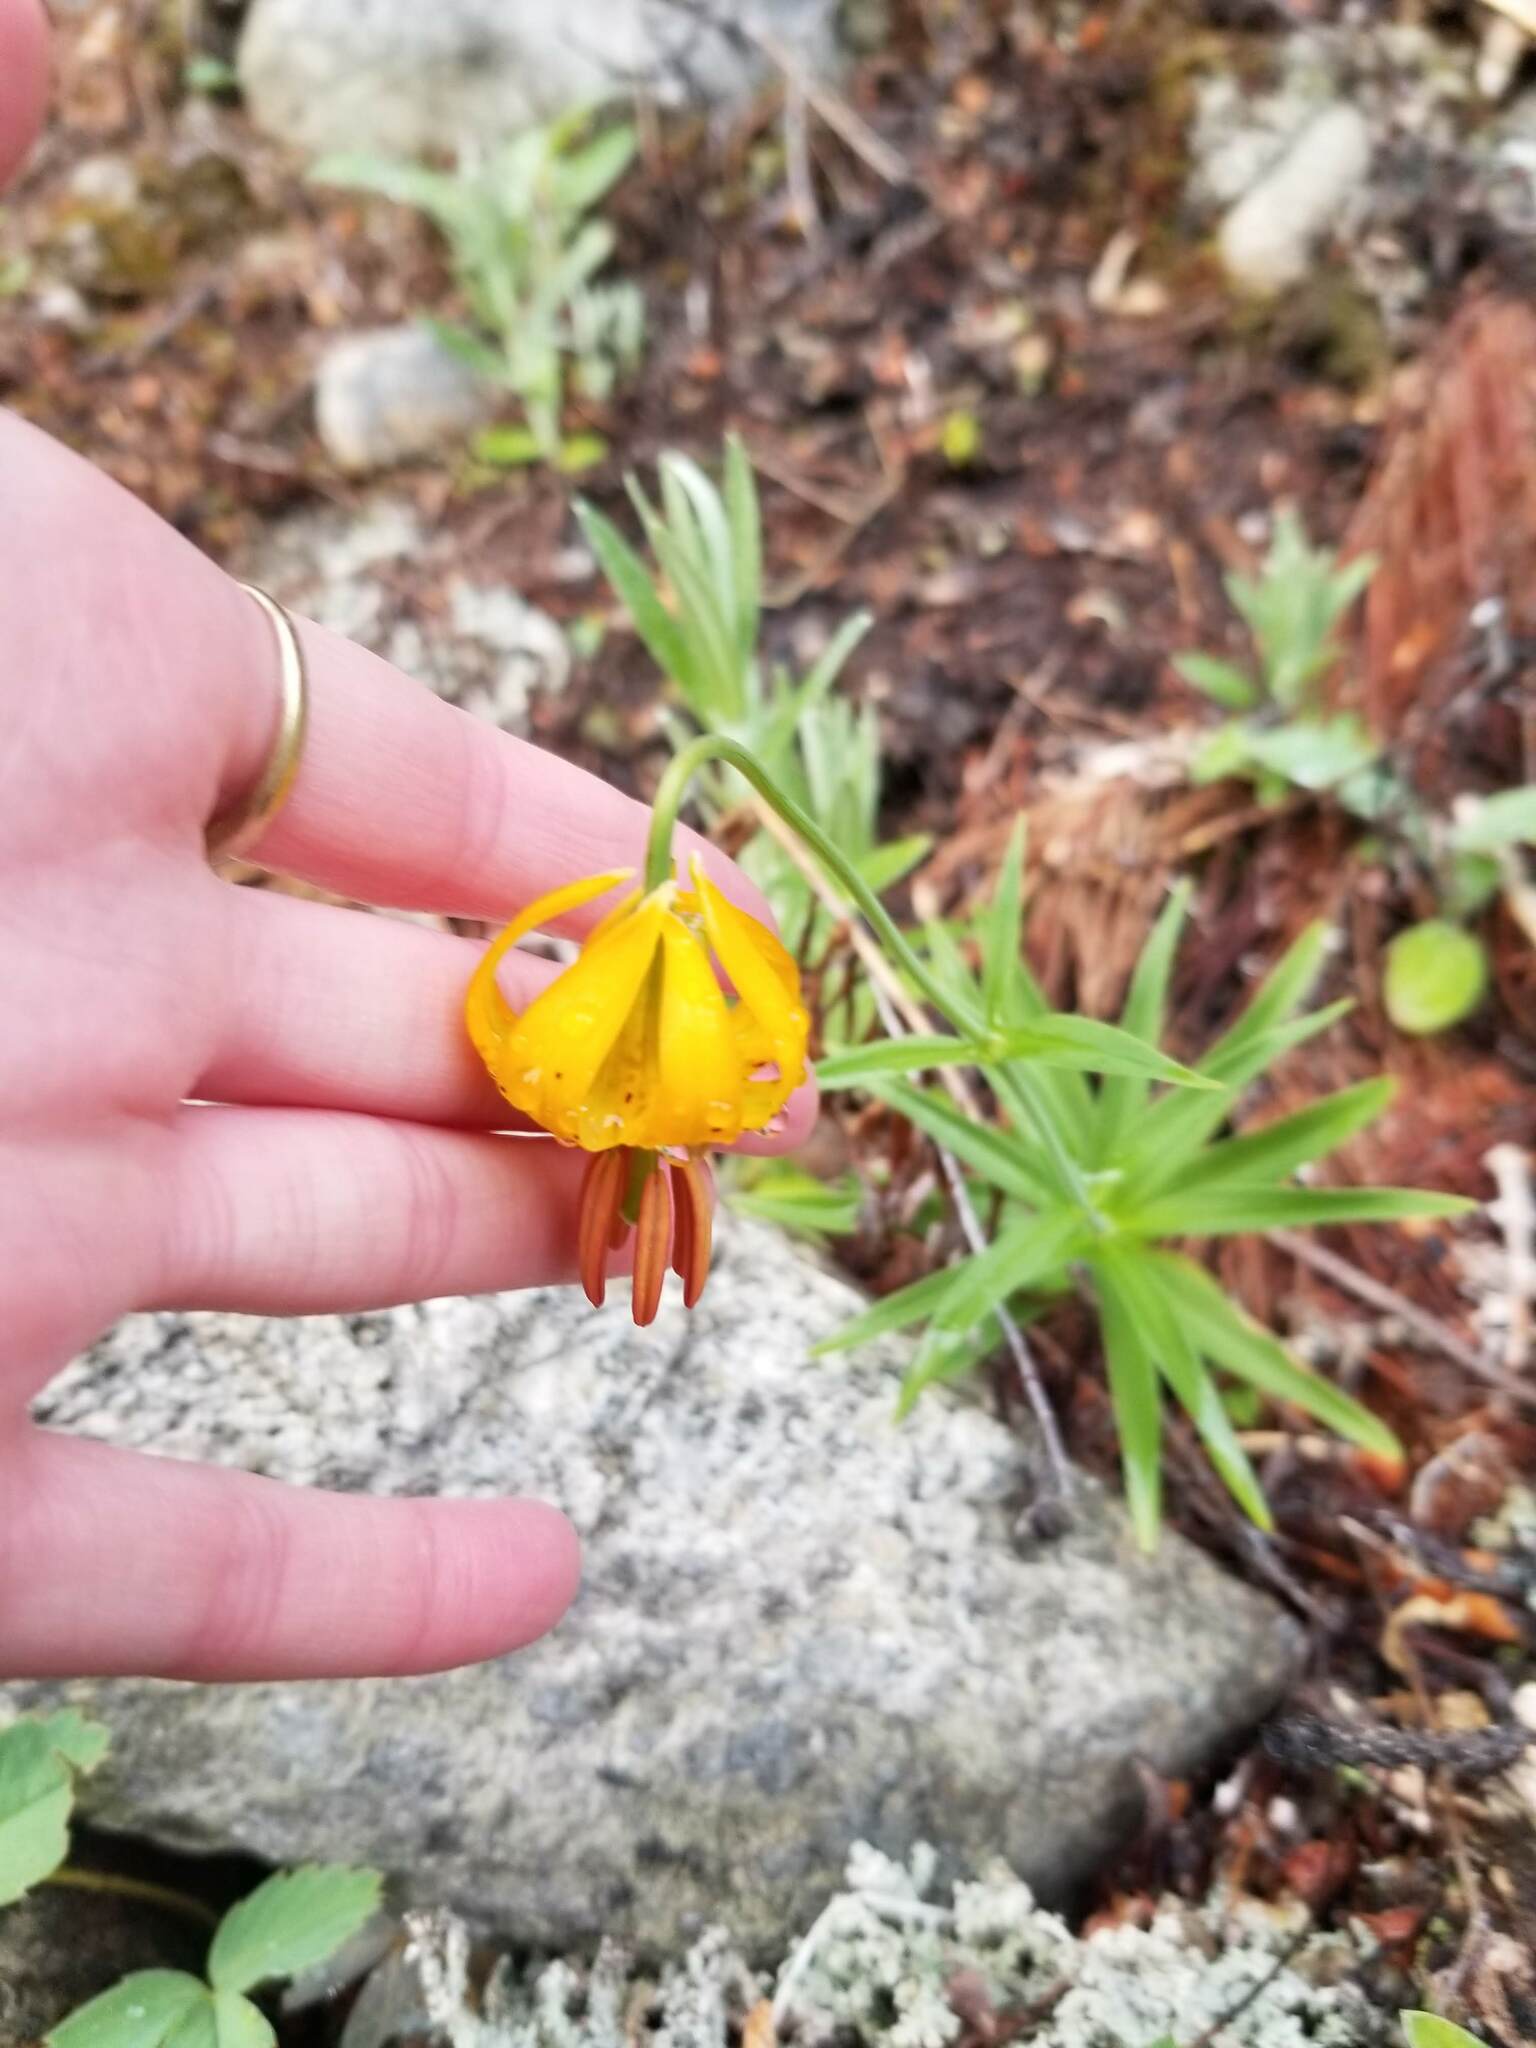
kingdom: Plantae
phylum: Tracheophyta
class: Liliopsida
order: Liliales
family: Liliaceae
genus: Lilium
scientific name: Lilium columbianum
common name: Columbia lily
